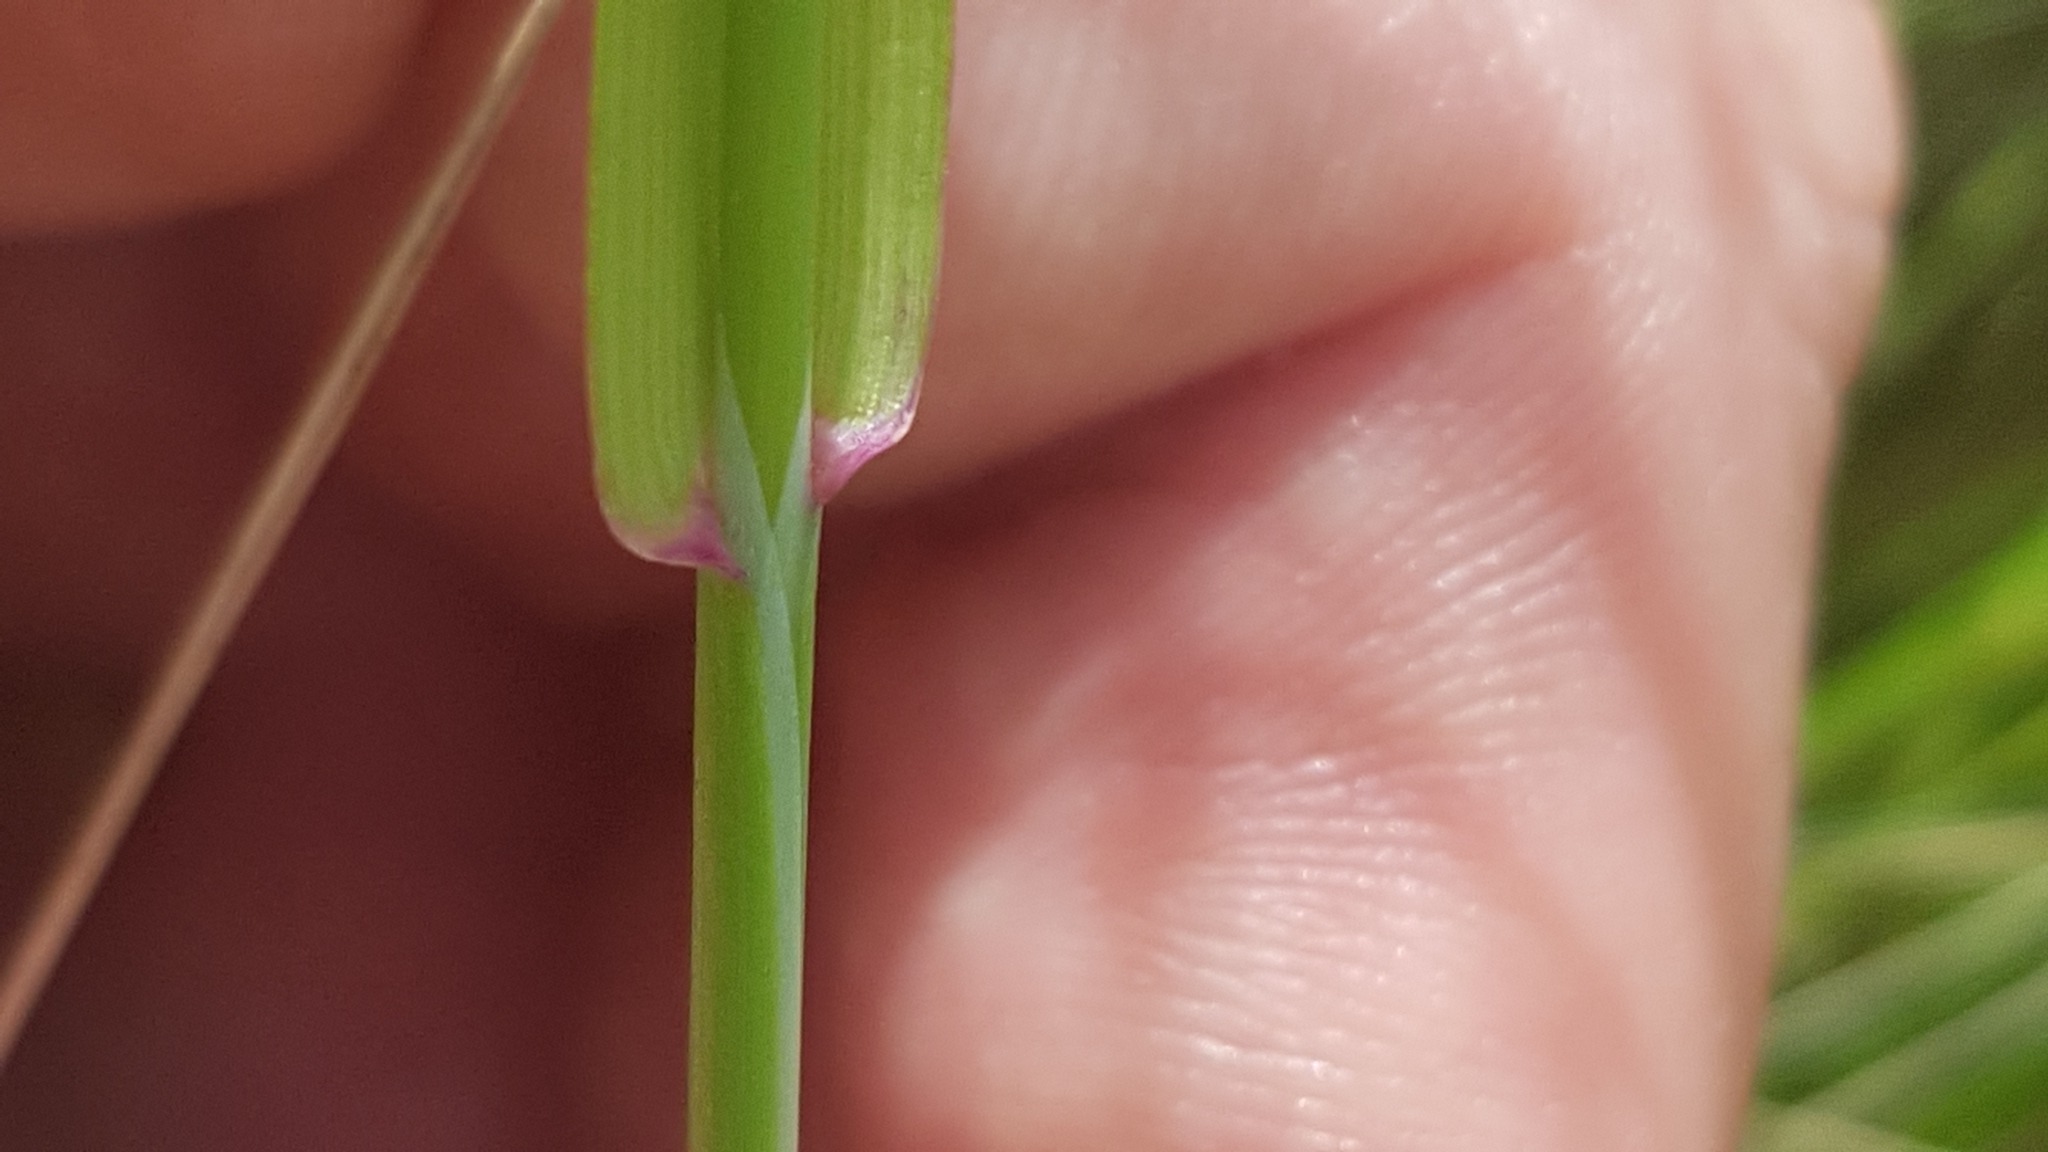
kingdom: Plantae
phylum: Tracheophyta
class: Liliopsida
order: Poales
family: Poaceae
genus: Briza
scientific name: Briza maxima
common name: Big quakinggrass
